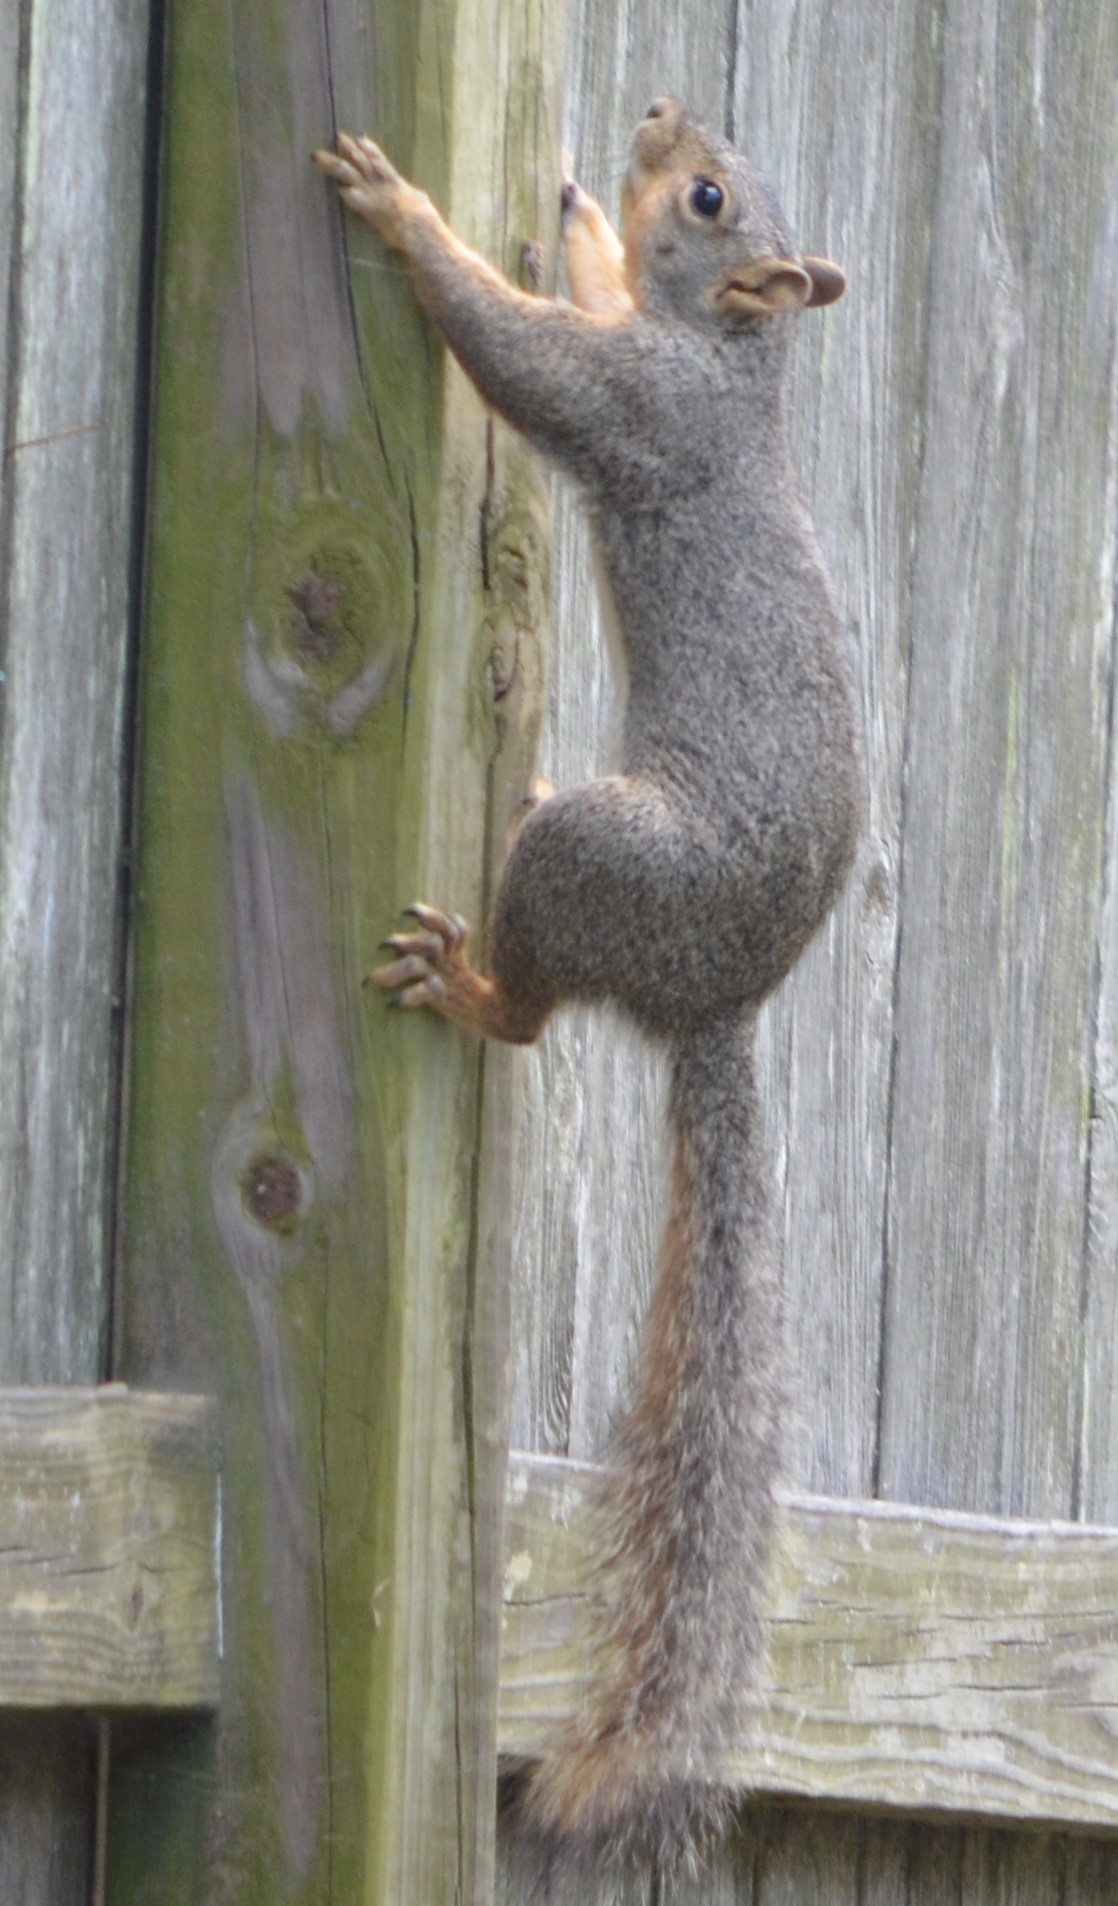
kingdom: Animalia
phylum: Chordata
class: Mammalia
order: Rodentia
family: Sciuridae
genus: Sciurus
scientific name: Sciurus niger
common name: Fox squirrel
